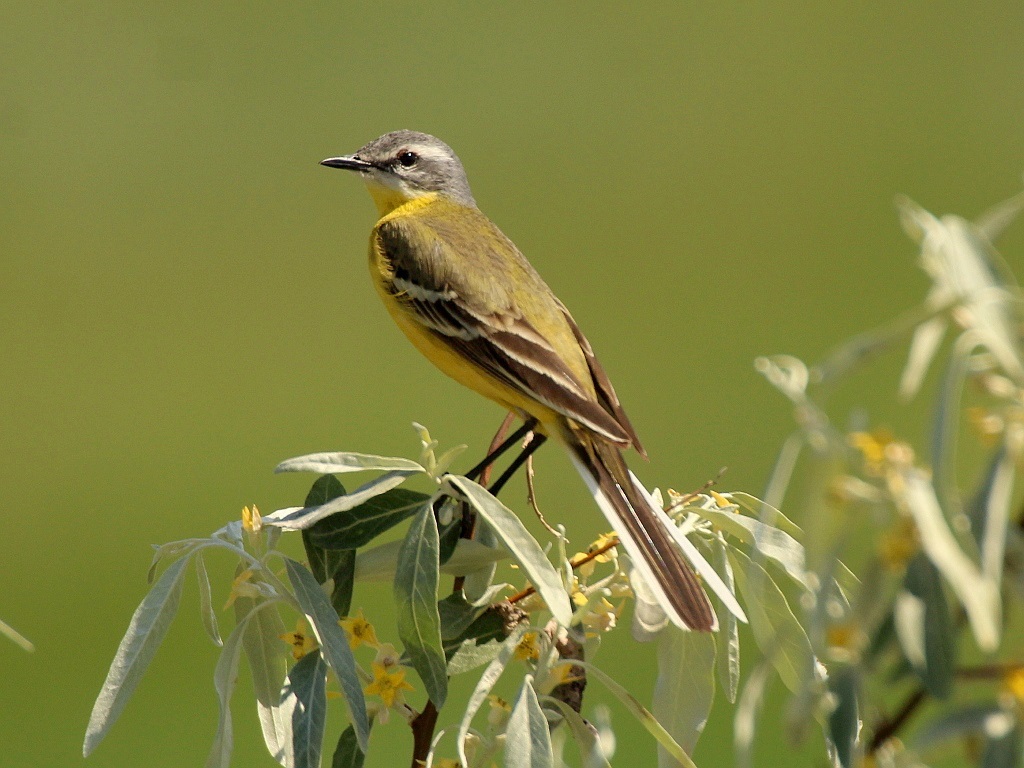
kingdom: Animalia
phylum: Chordata
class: Aves
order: Passeriformes
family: Motacillidae
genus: Motacilla
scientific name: Motacilla flava
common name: Western yellow wagtail
